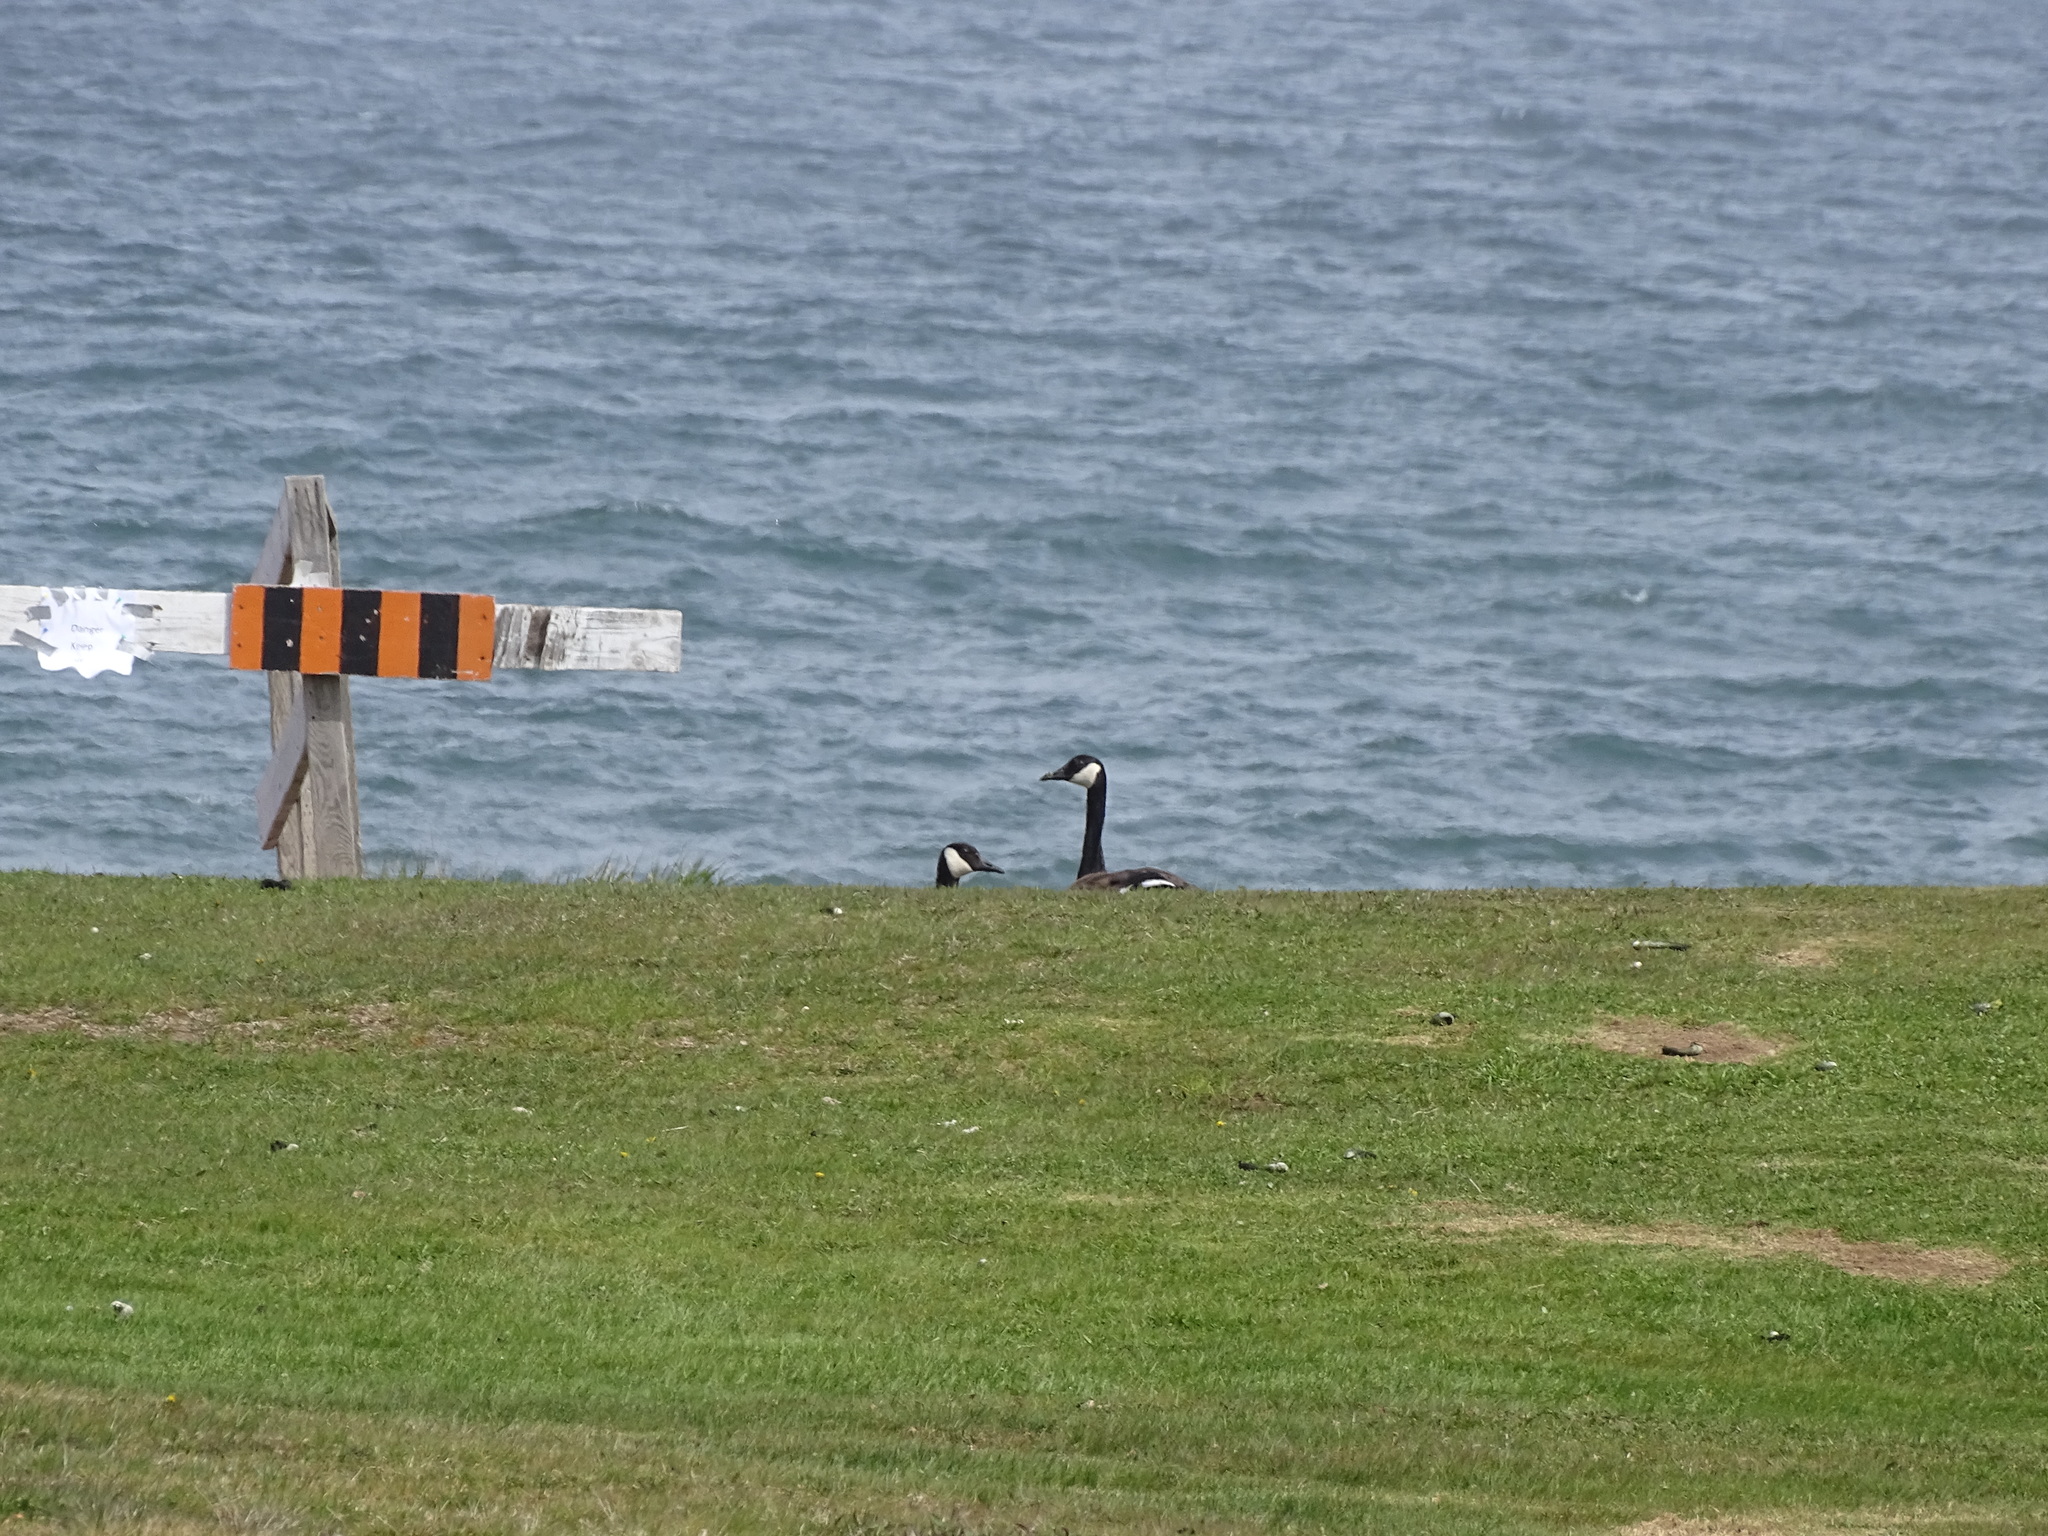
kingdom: Animalia
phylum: Chordata
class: Aves
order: Anseriformes
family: Anatidae
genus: Branta
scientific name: Branta canadensis
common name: Canada goose
